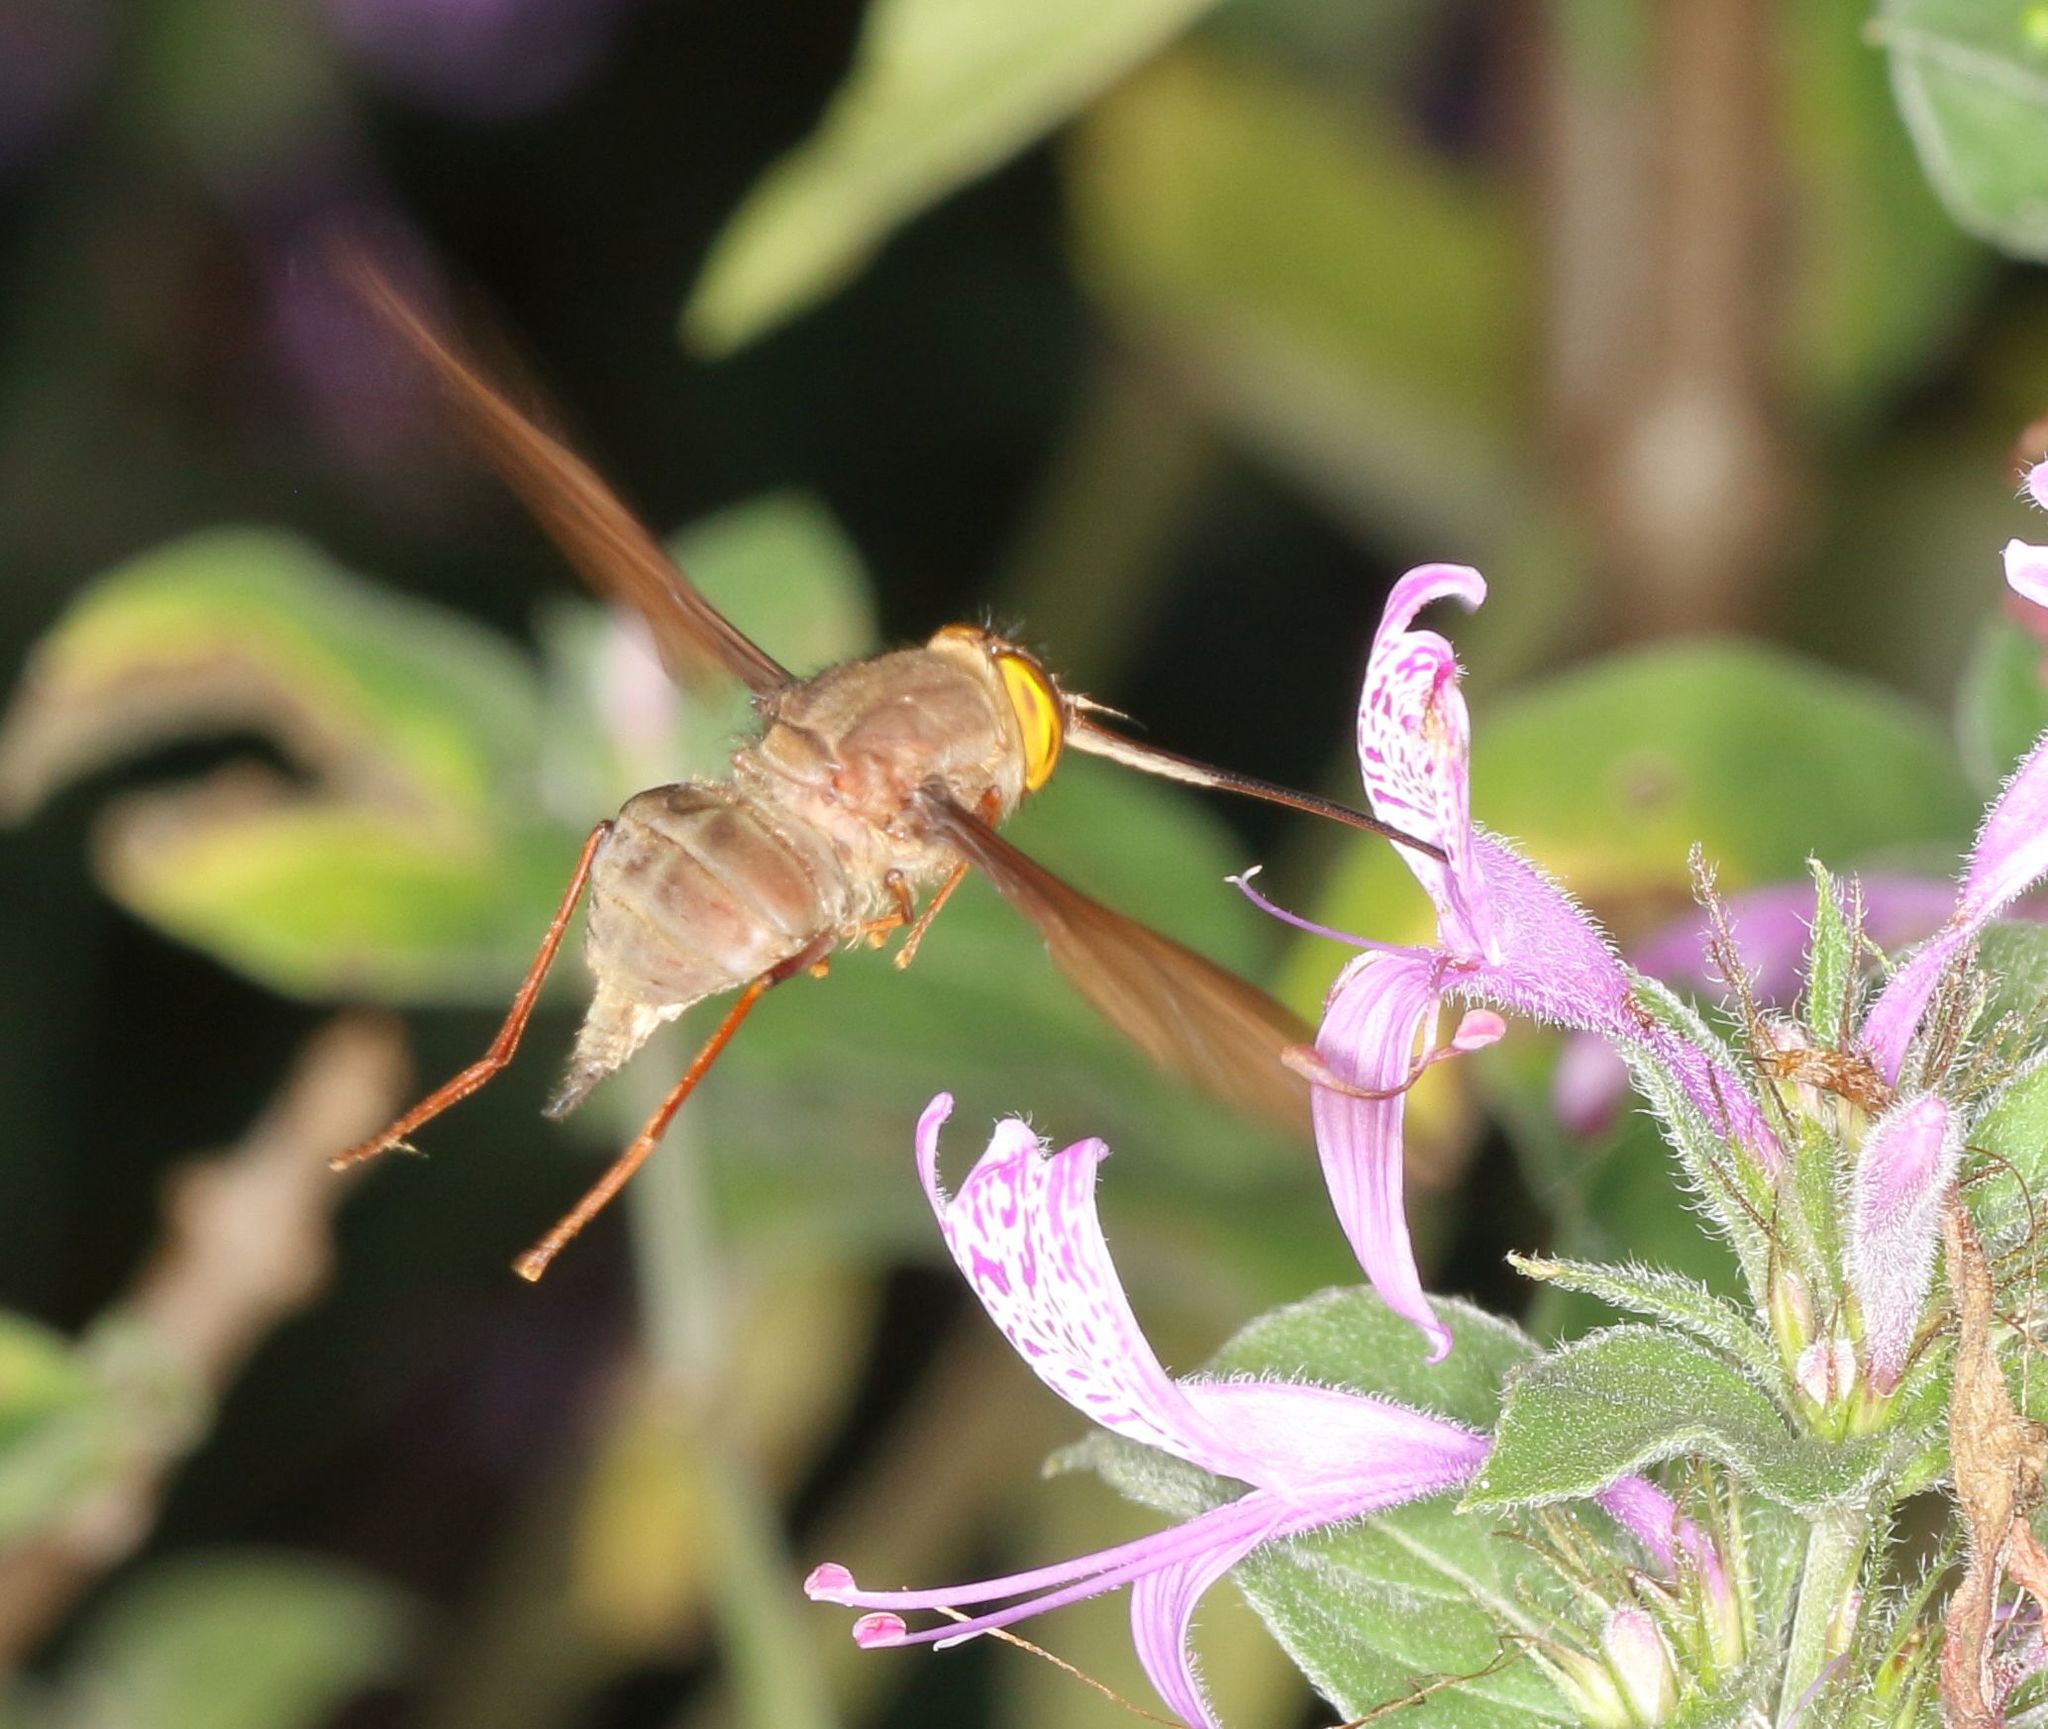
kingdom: Animalia
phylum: Arthropoda
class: Insecta
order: Diptera
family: Nemestrinidae
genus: Stenobasipteron
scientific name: Stenobasipteron wiedemanni
